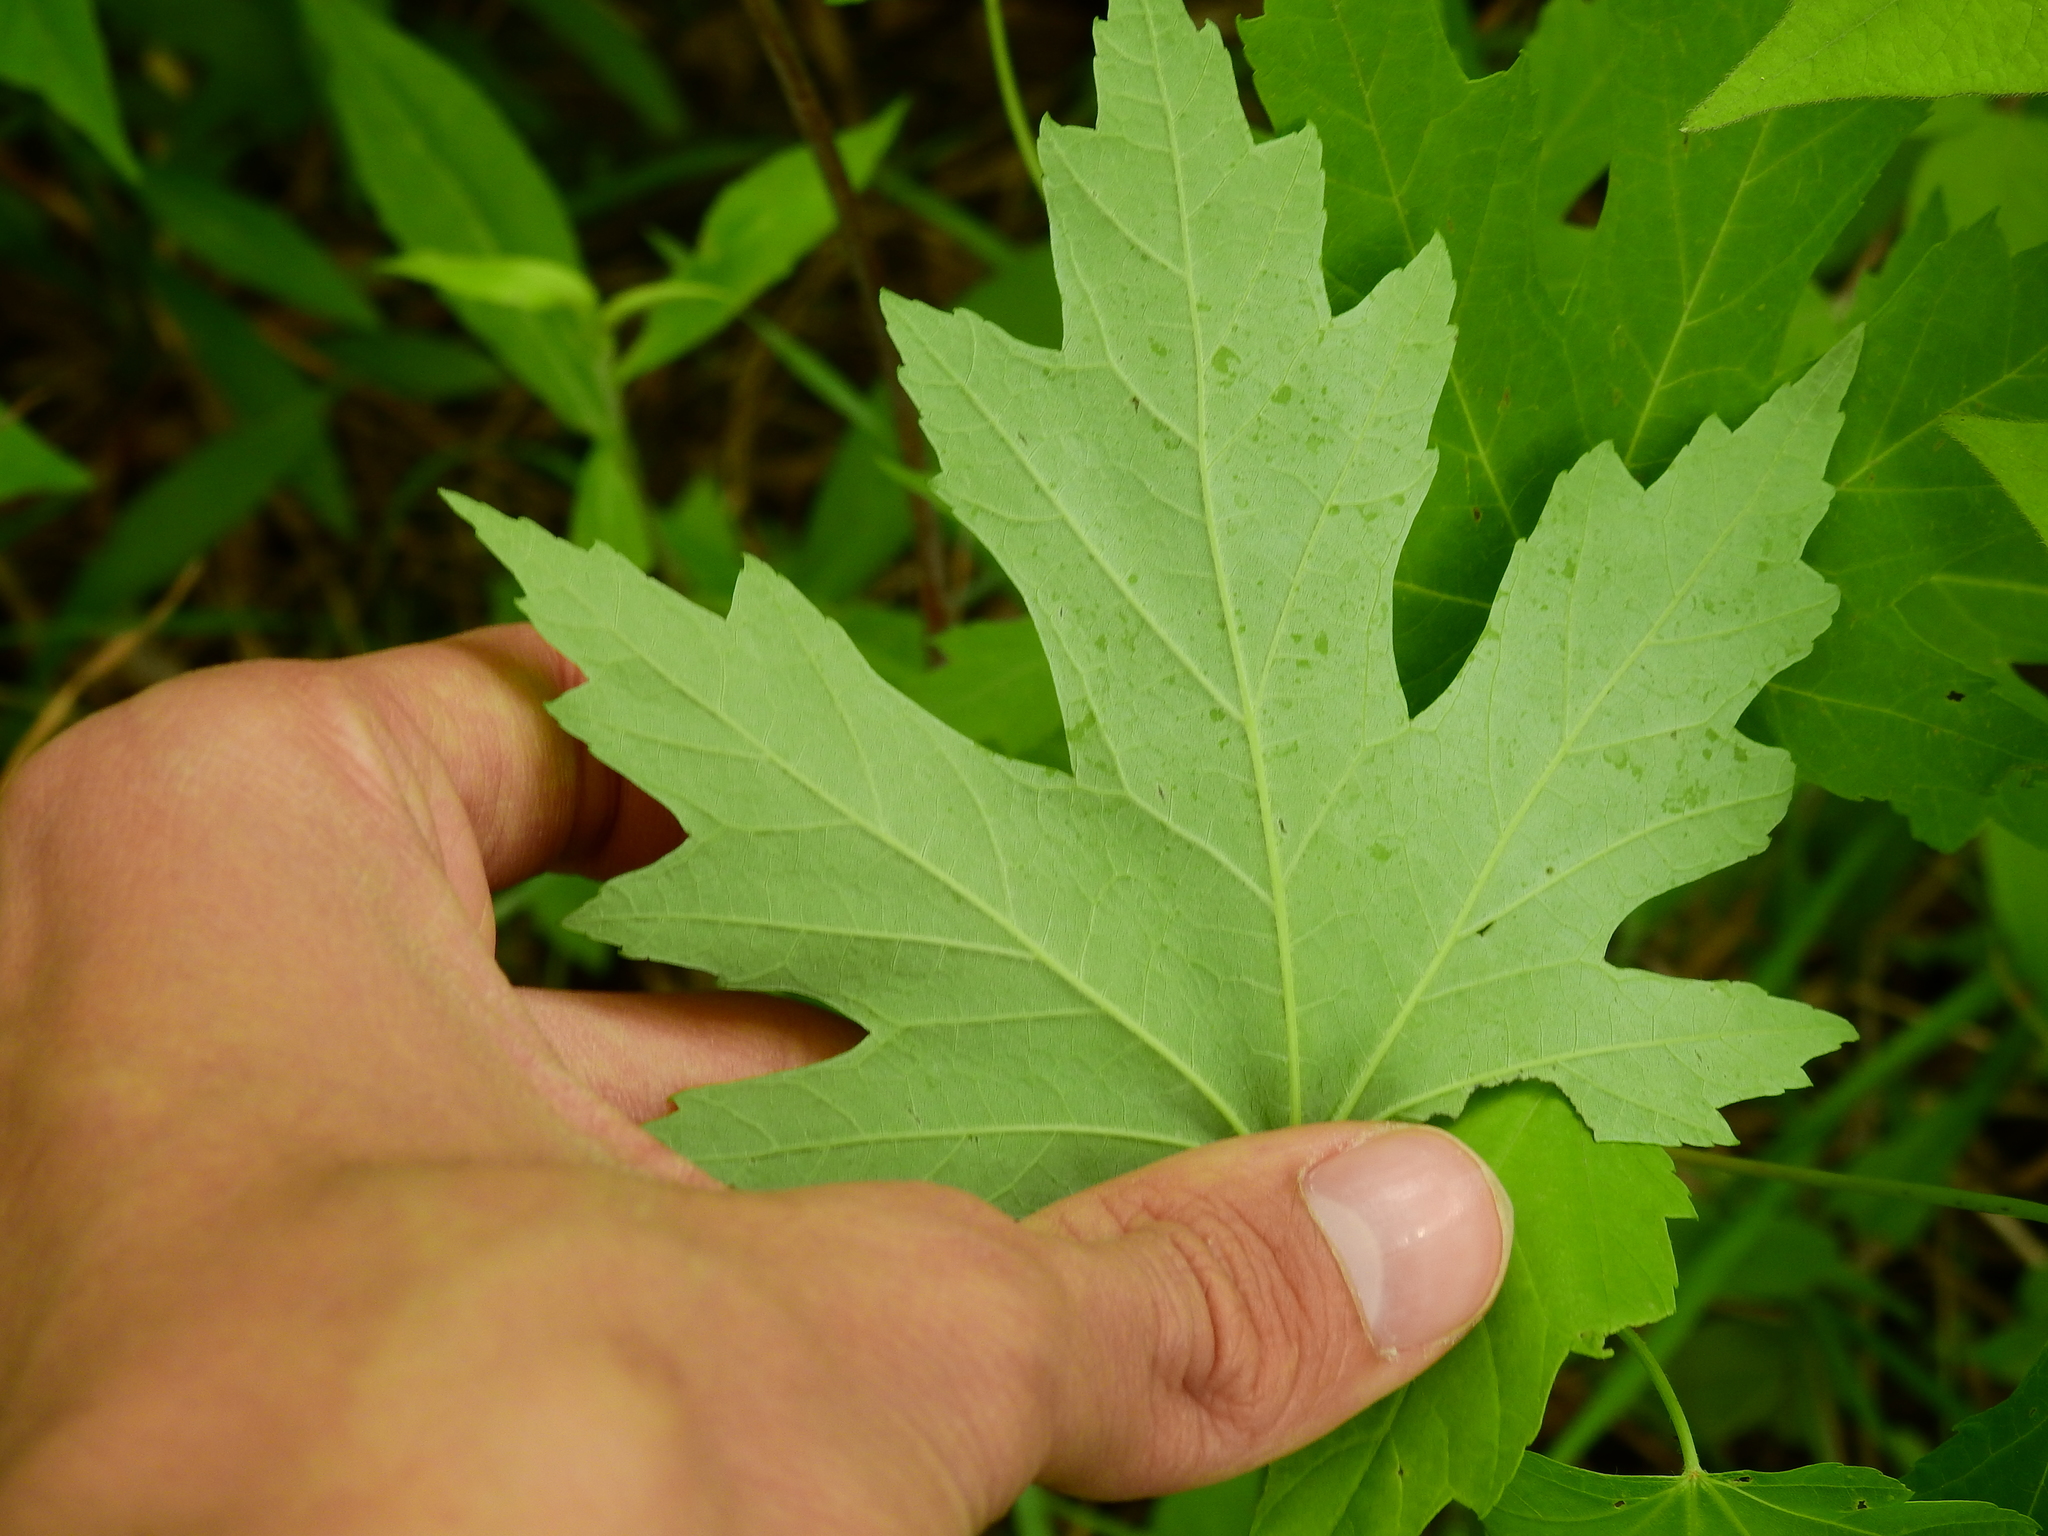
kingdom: Plantae
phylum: Tracheophyta
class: Magnoliopsida
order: Sapindales
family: Sapindaceae
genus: Acer
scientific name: Acer freemanii
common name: Freeman maple
